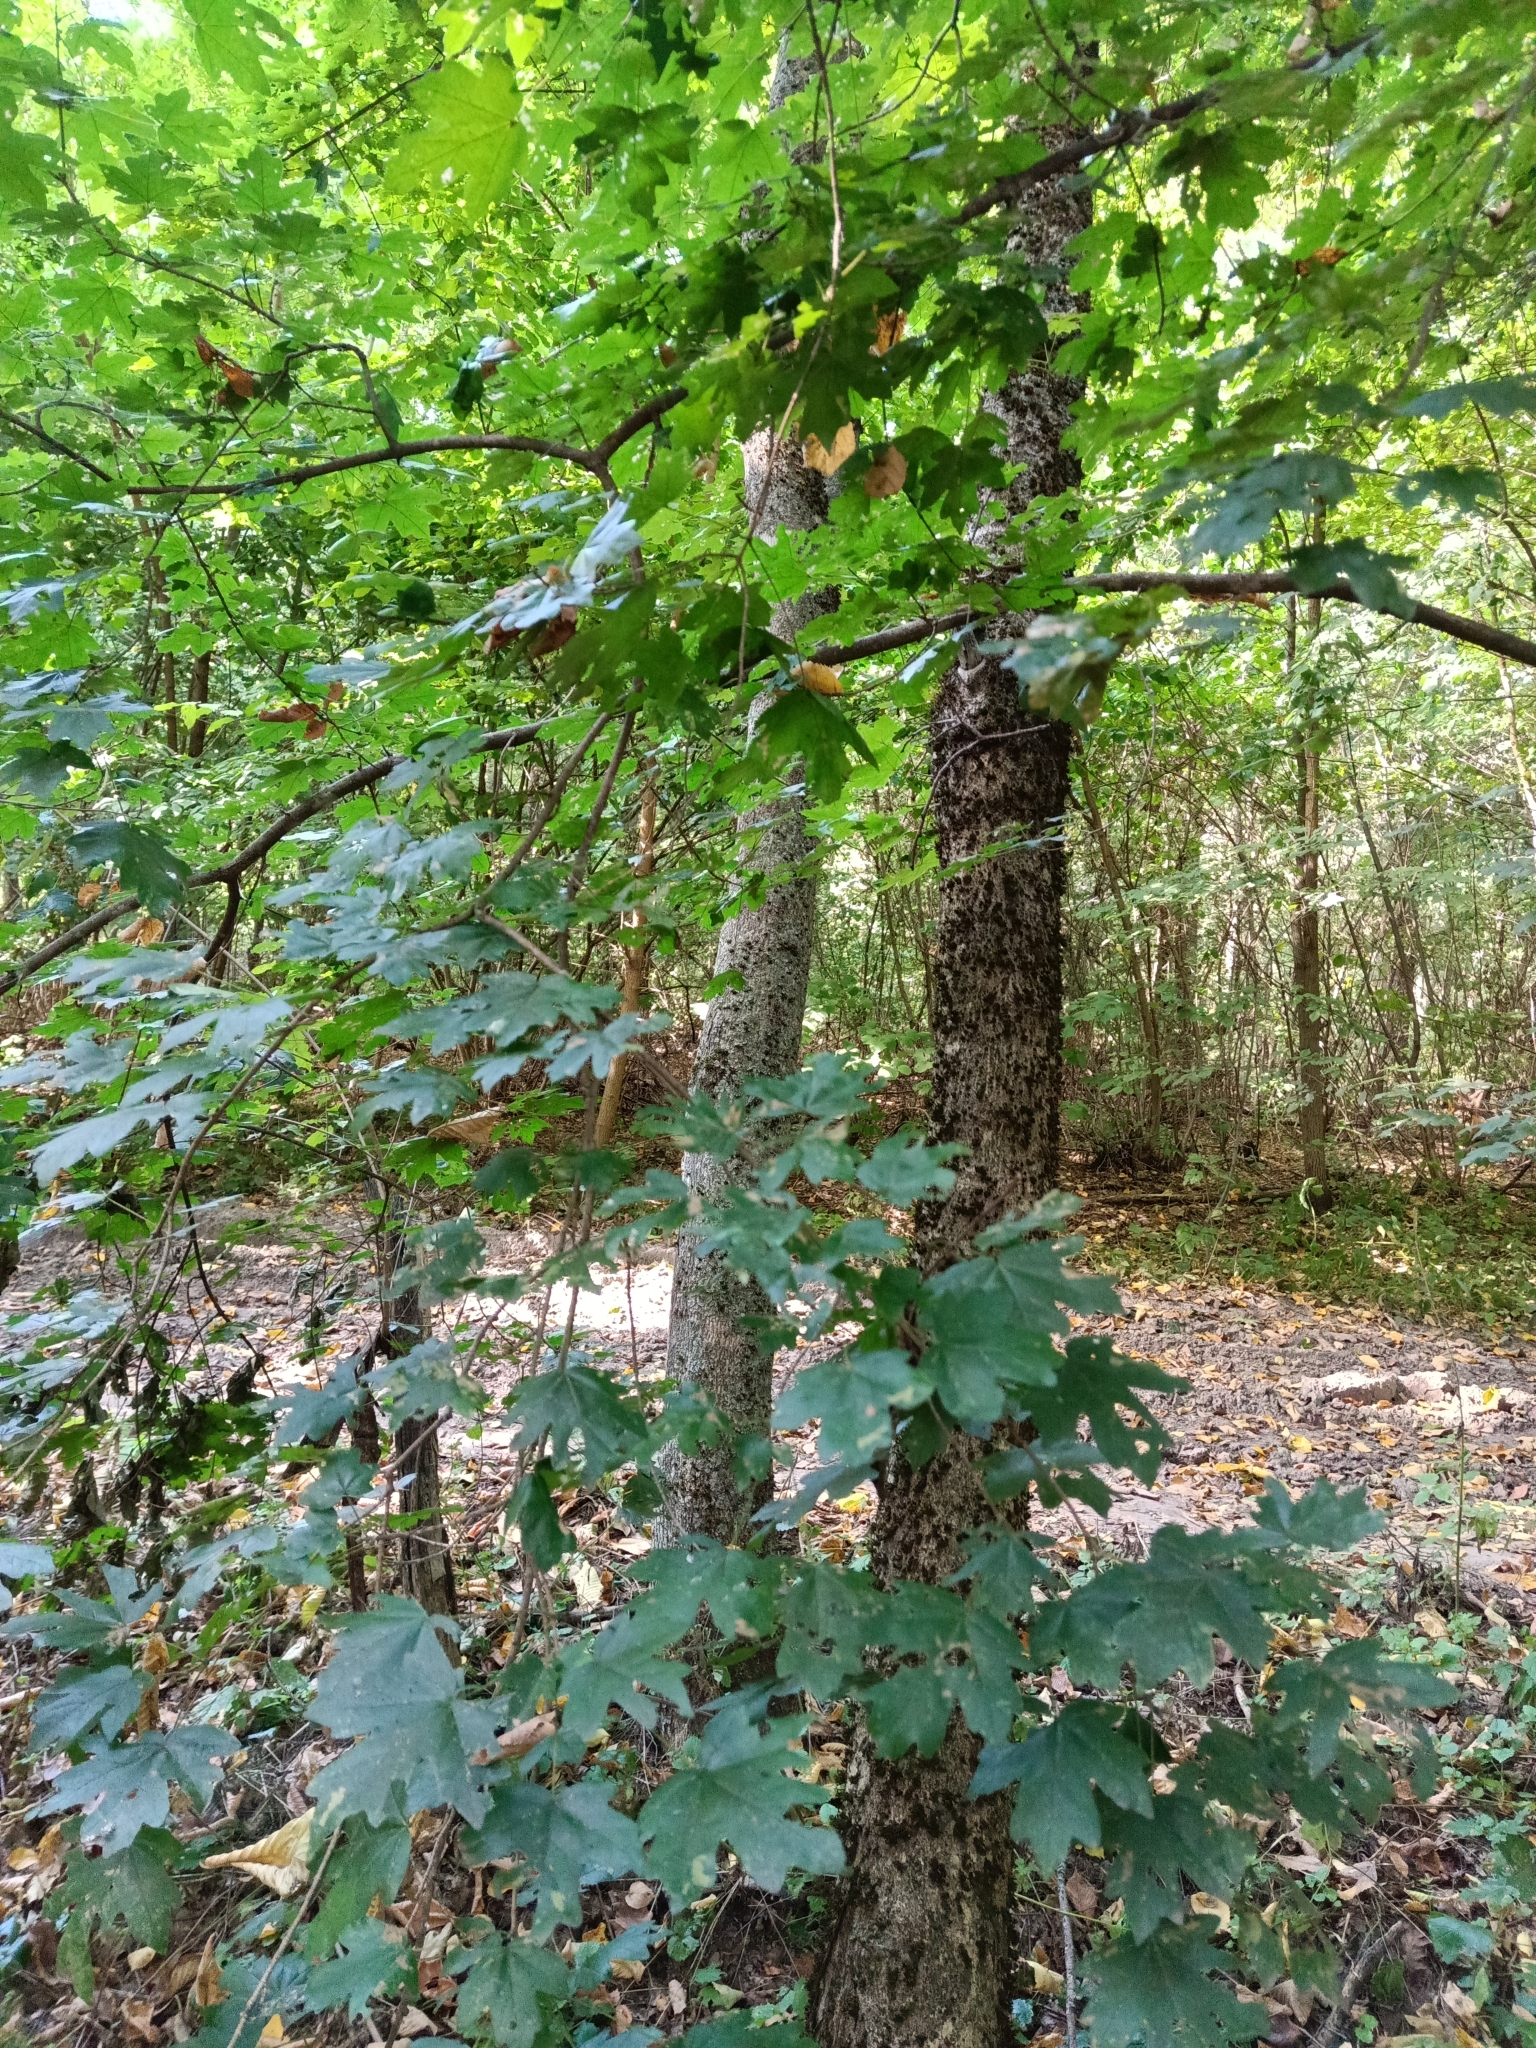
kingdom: Plantae
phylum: Tracheophyta
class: Magnoliopsida
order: Sapindales
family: Sapindaceae
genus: Acer
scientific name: Acer campestre
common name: Field maple
